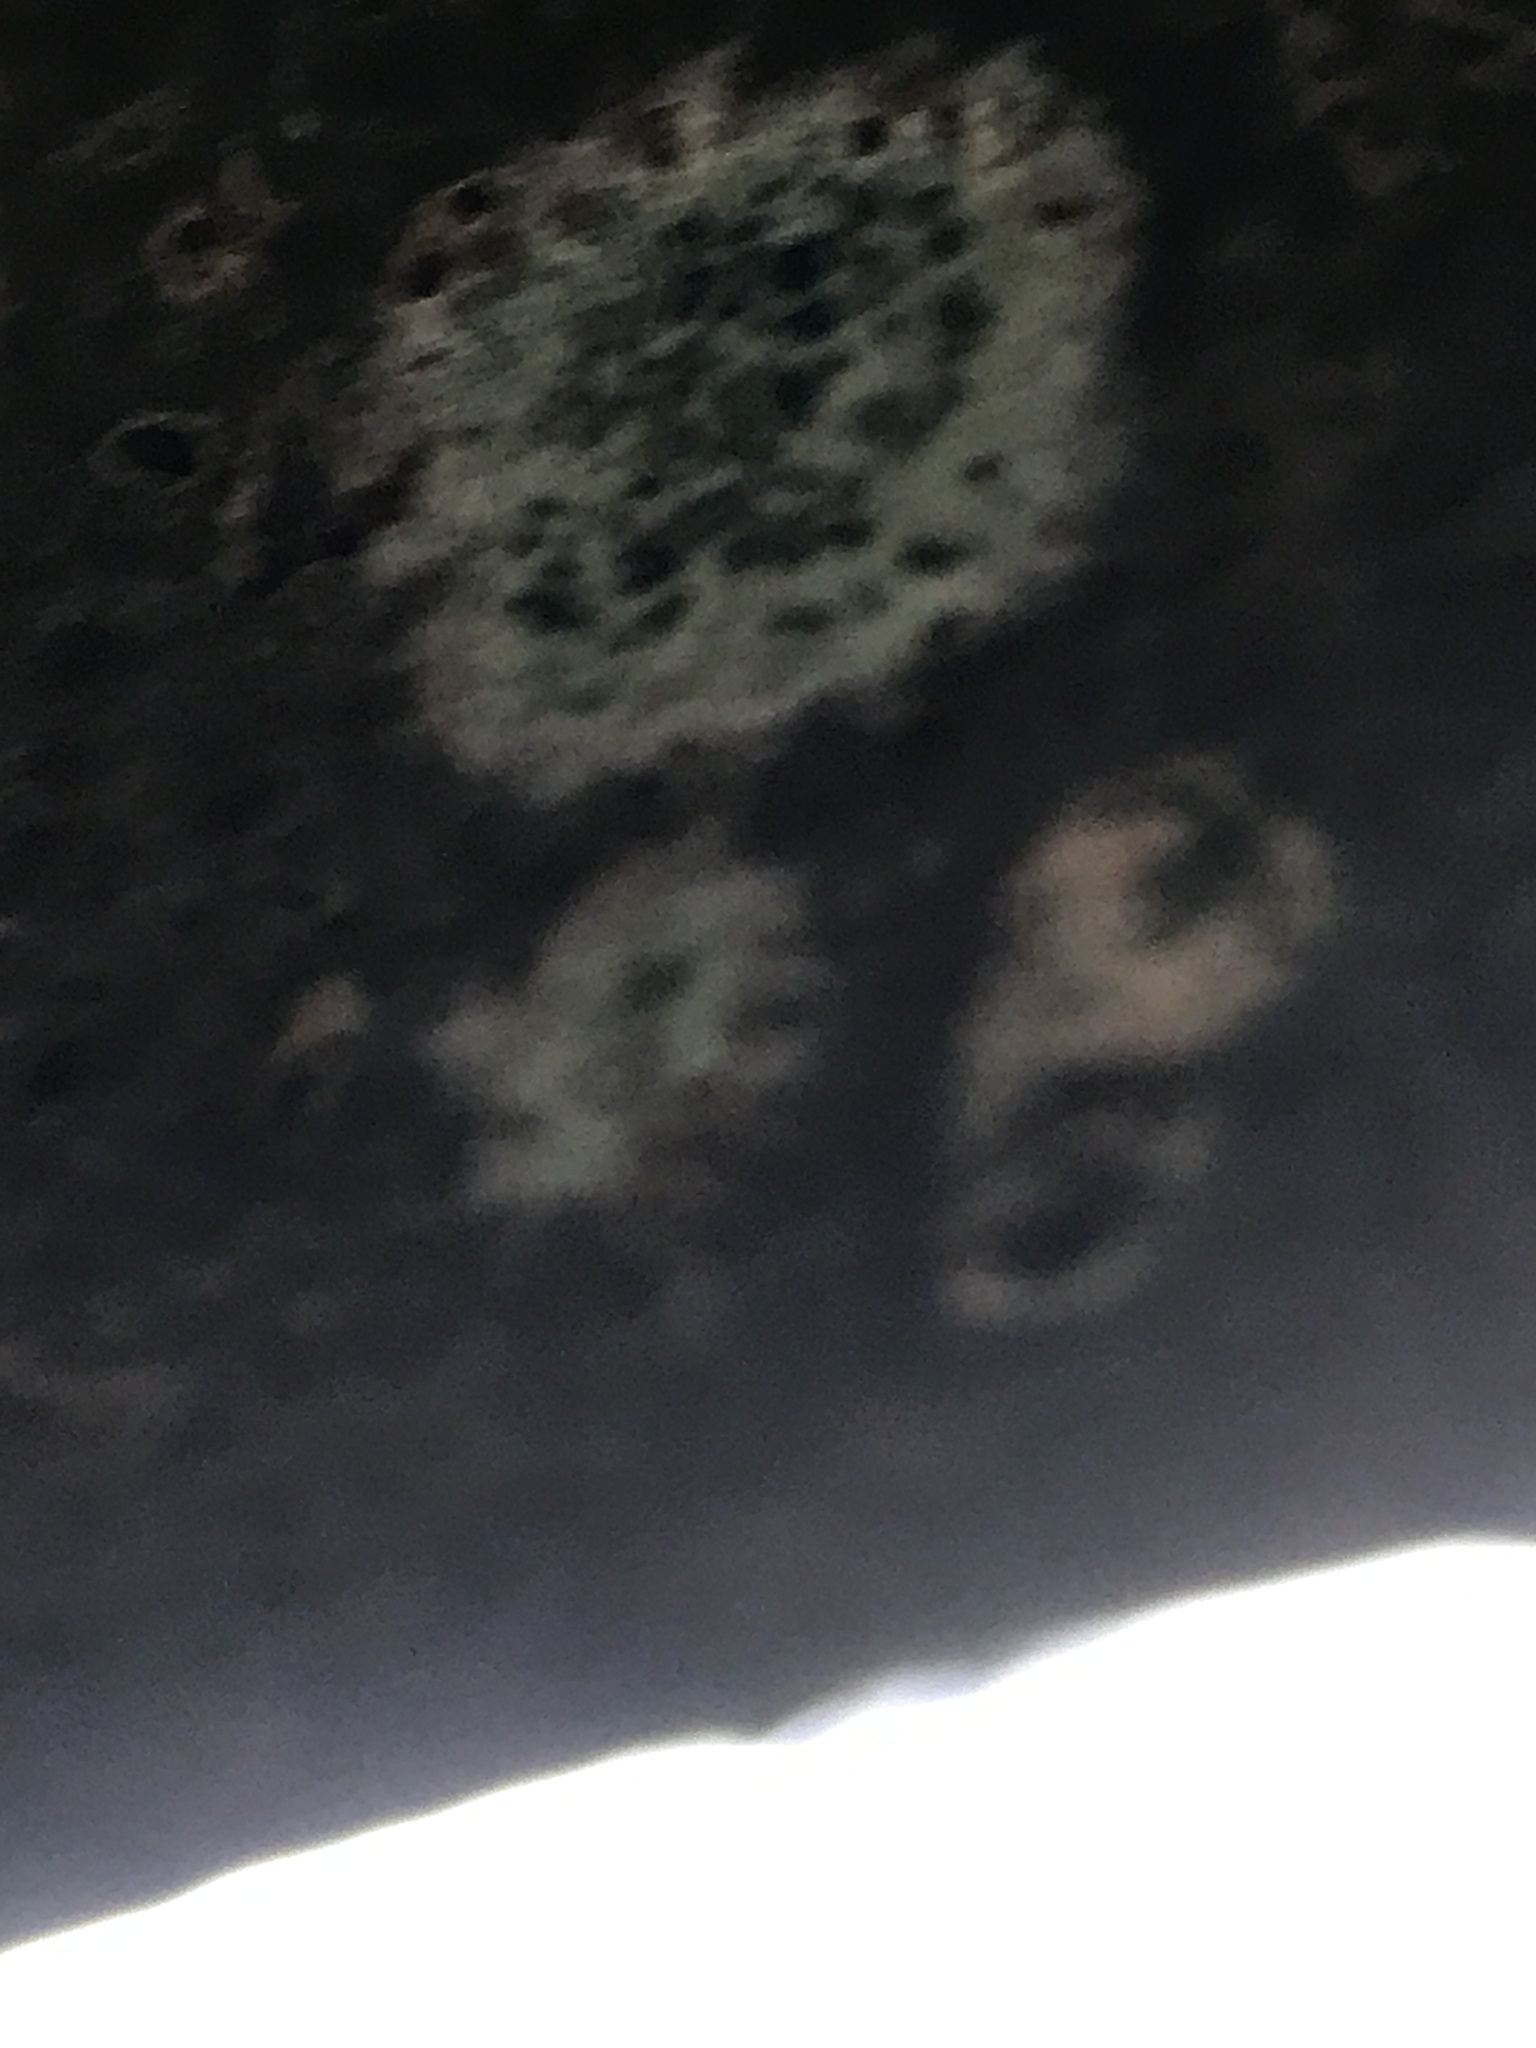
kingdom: Fungi
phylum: Ascomycota
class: Lecanoromycetes
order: Lecanorales
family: Lecanoraceae
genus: Lecidella
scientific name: Lecidella elaeochroma
